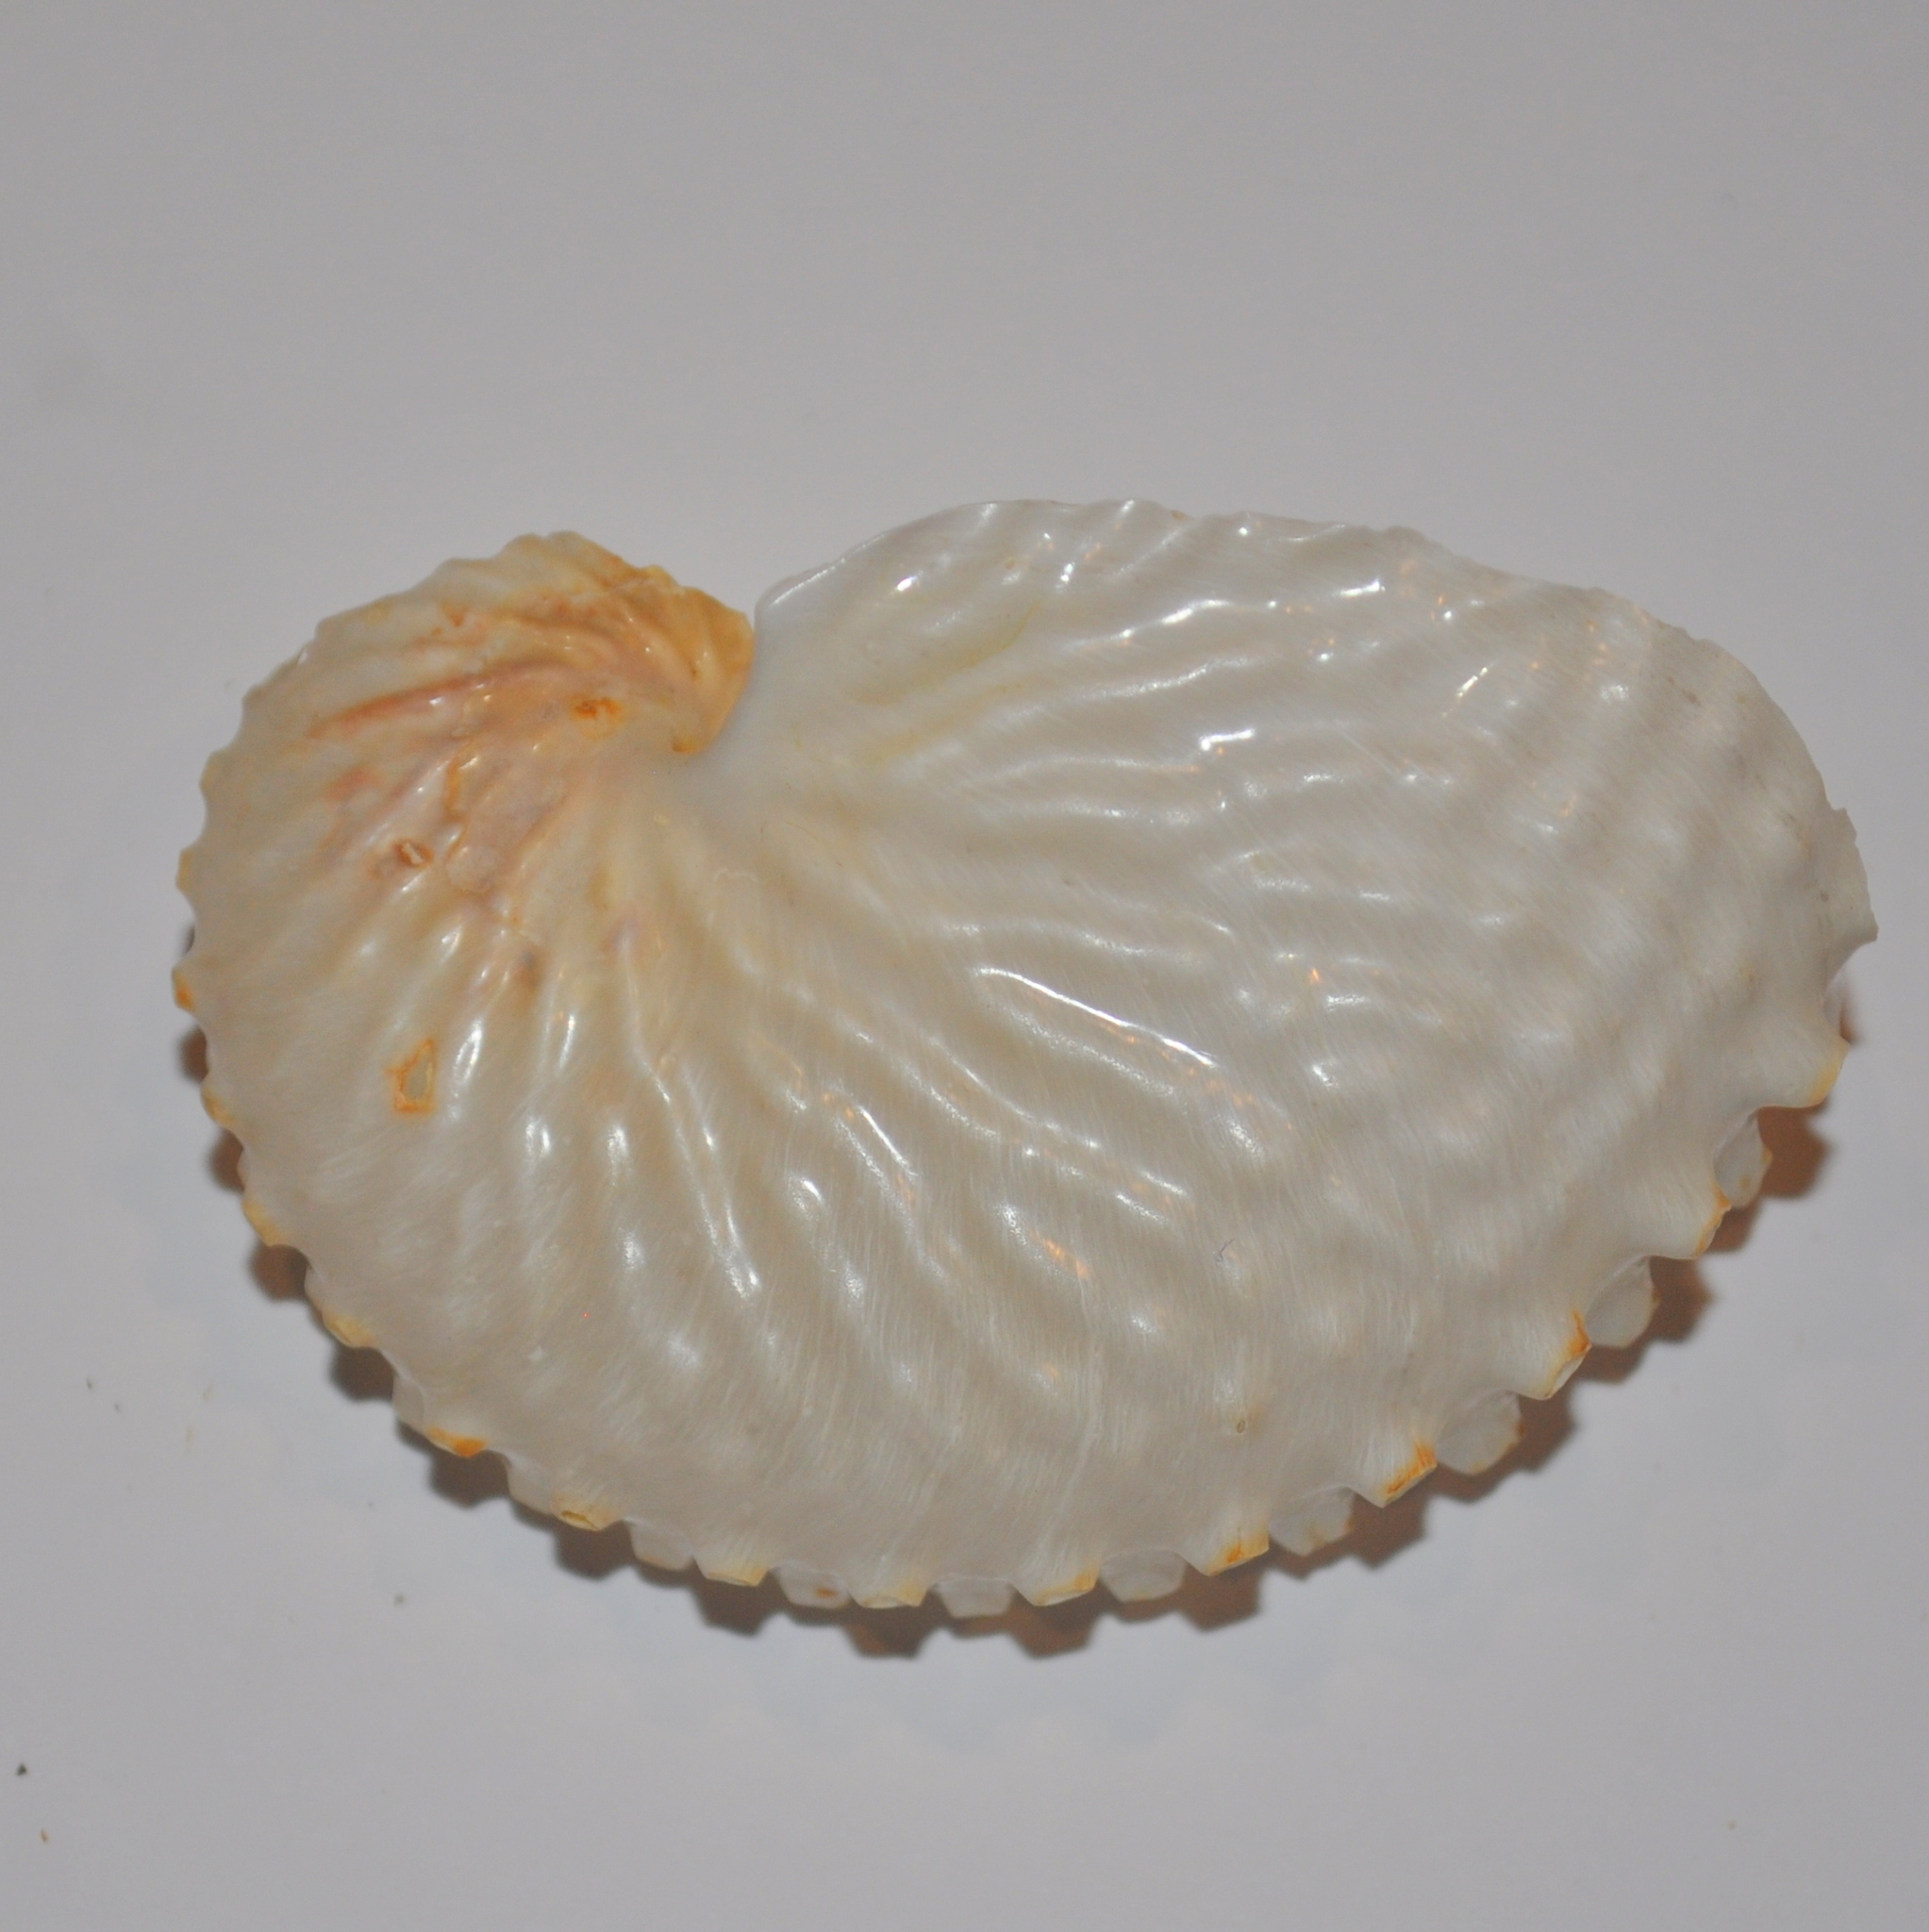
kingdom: Animalia
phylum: Mollusca
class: Cephalopoda
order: Octopoda
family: Argonautidae
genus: Argonauta
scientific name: Argonauta nodosus
